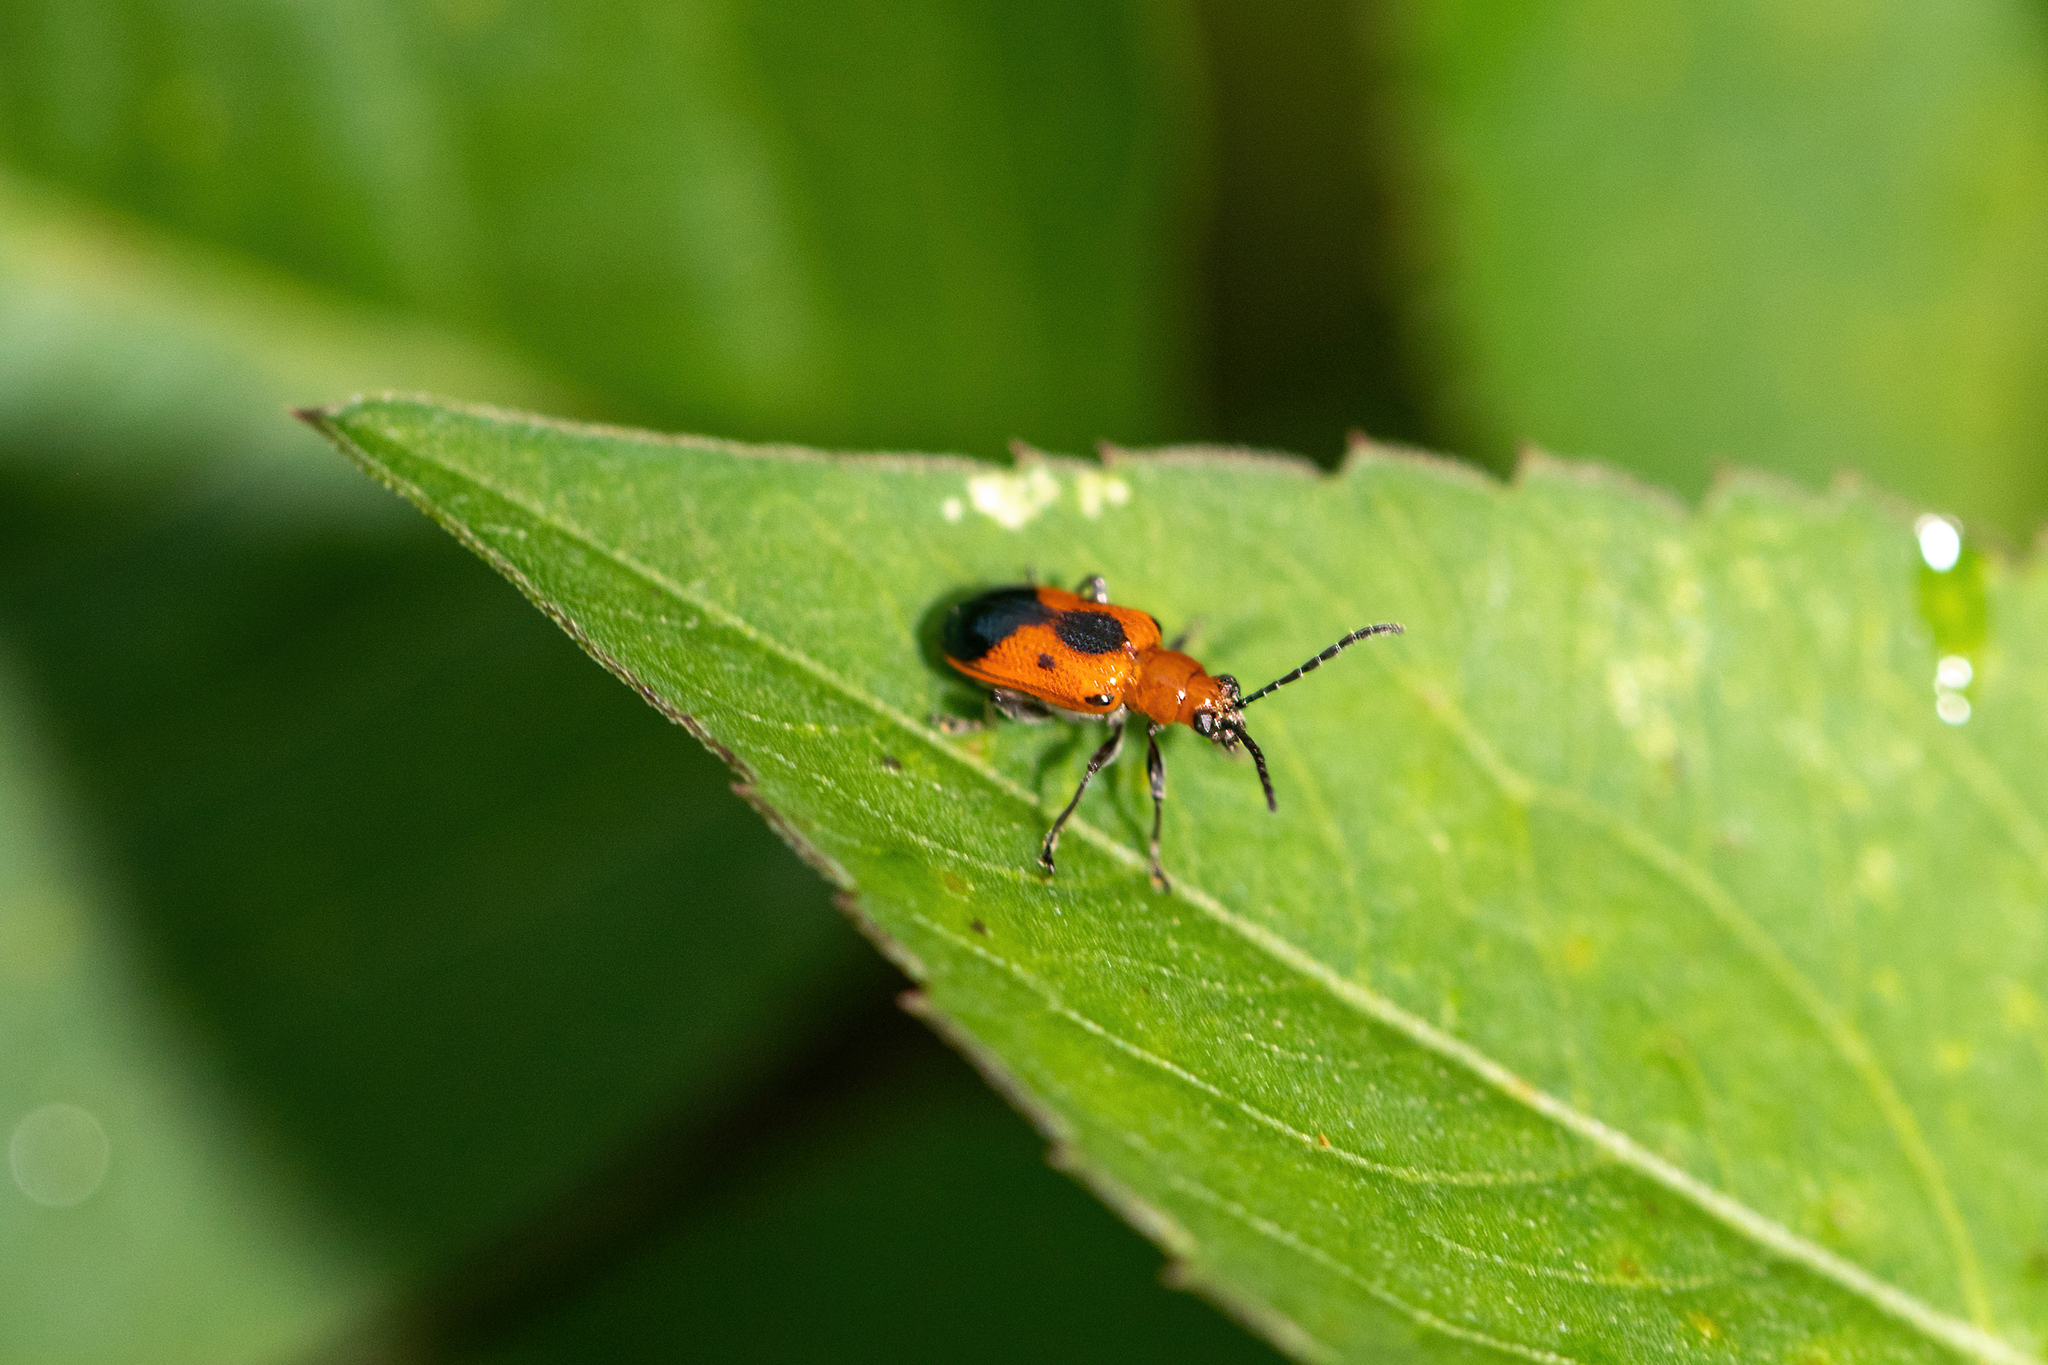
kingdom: Animalia
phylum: Arthropoda
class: Insecta
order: Coleoptera
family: Chrysomelidae
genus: Neolema
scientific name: Neolema
